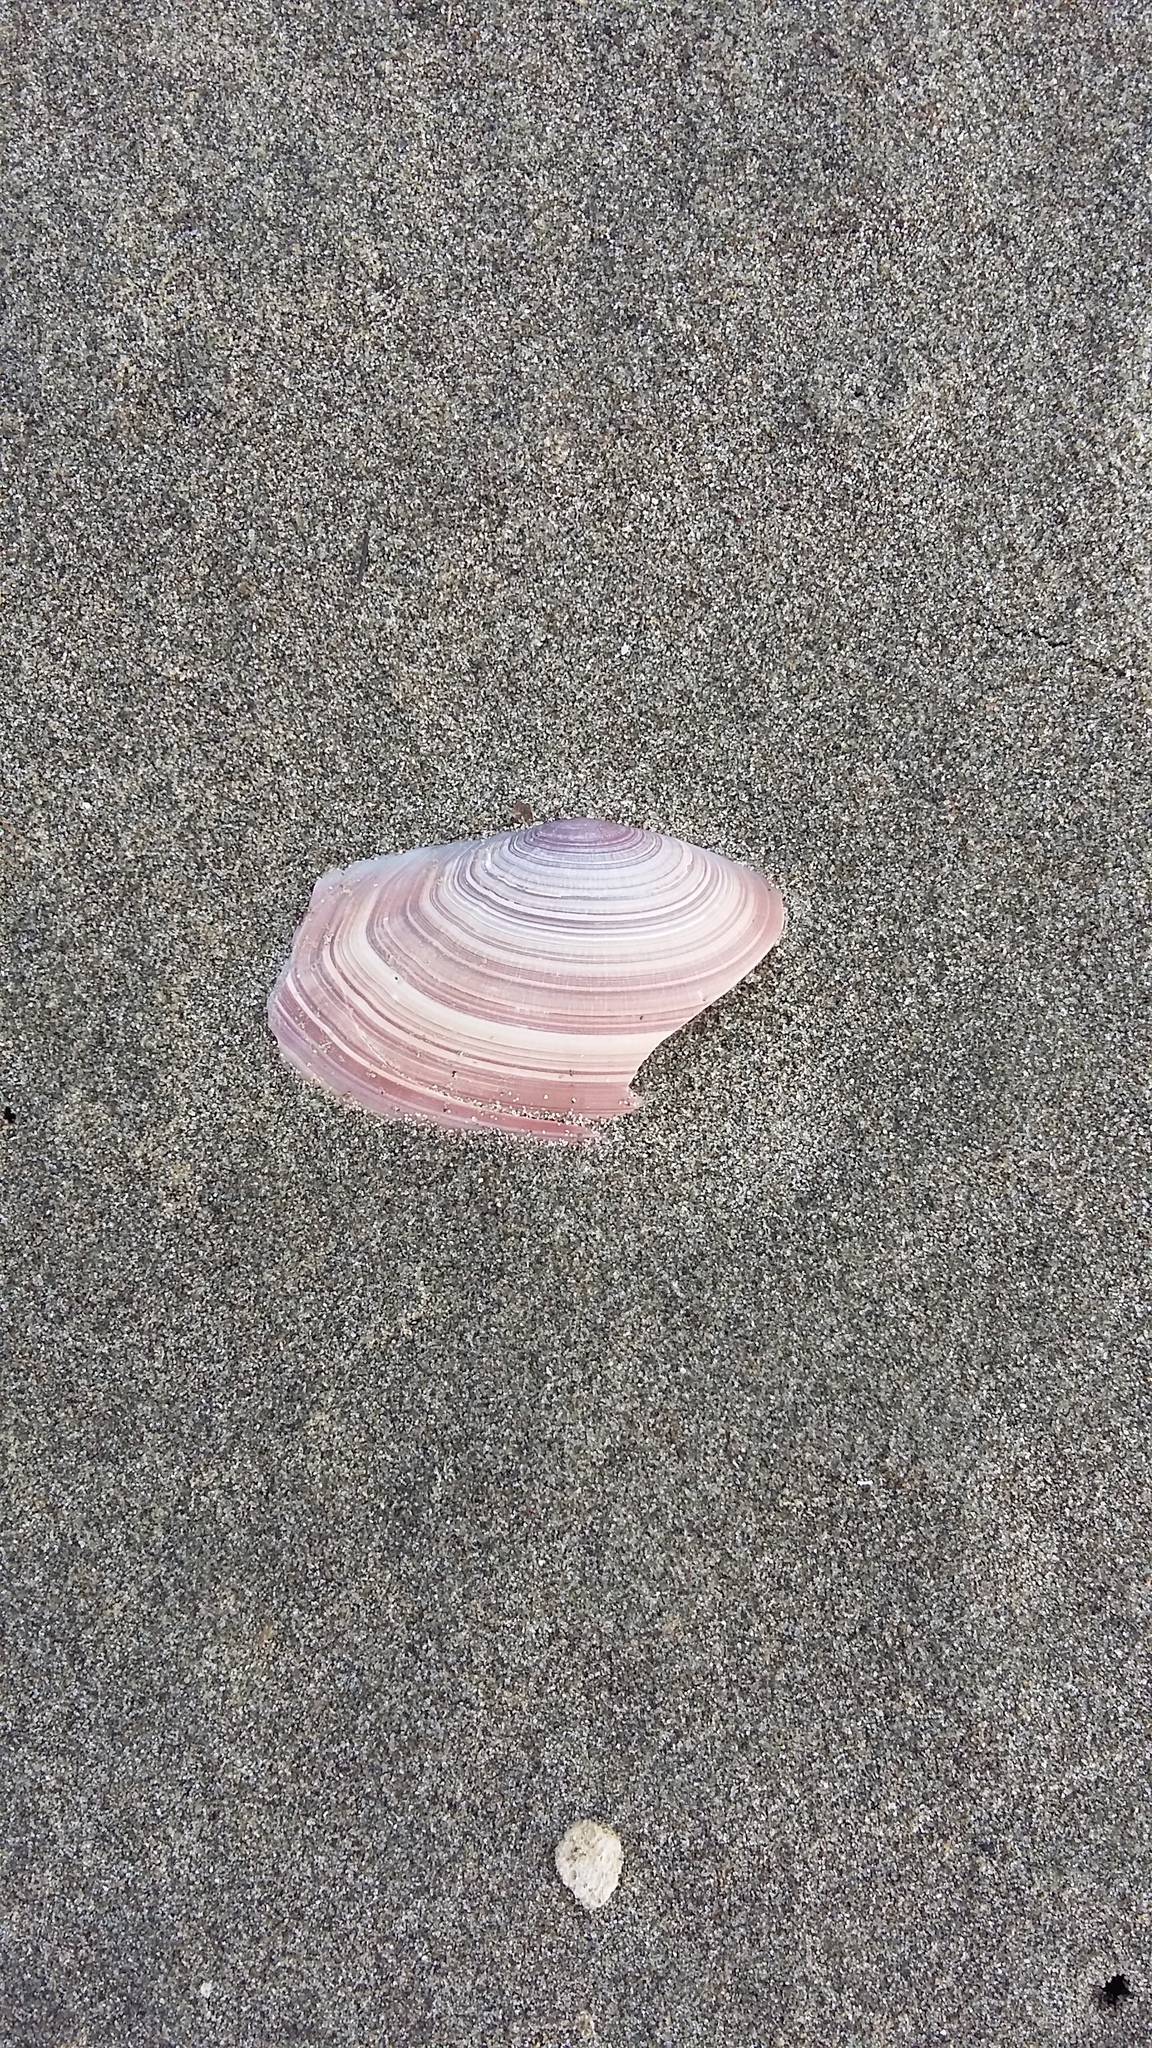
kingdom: Animalia
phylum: Mollusca
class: Bivalvia
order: Cardiida
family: Psammobiidae
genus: Gari
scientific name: Gari lineolata
